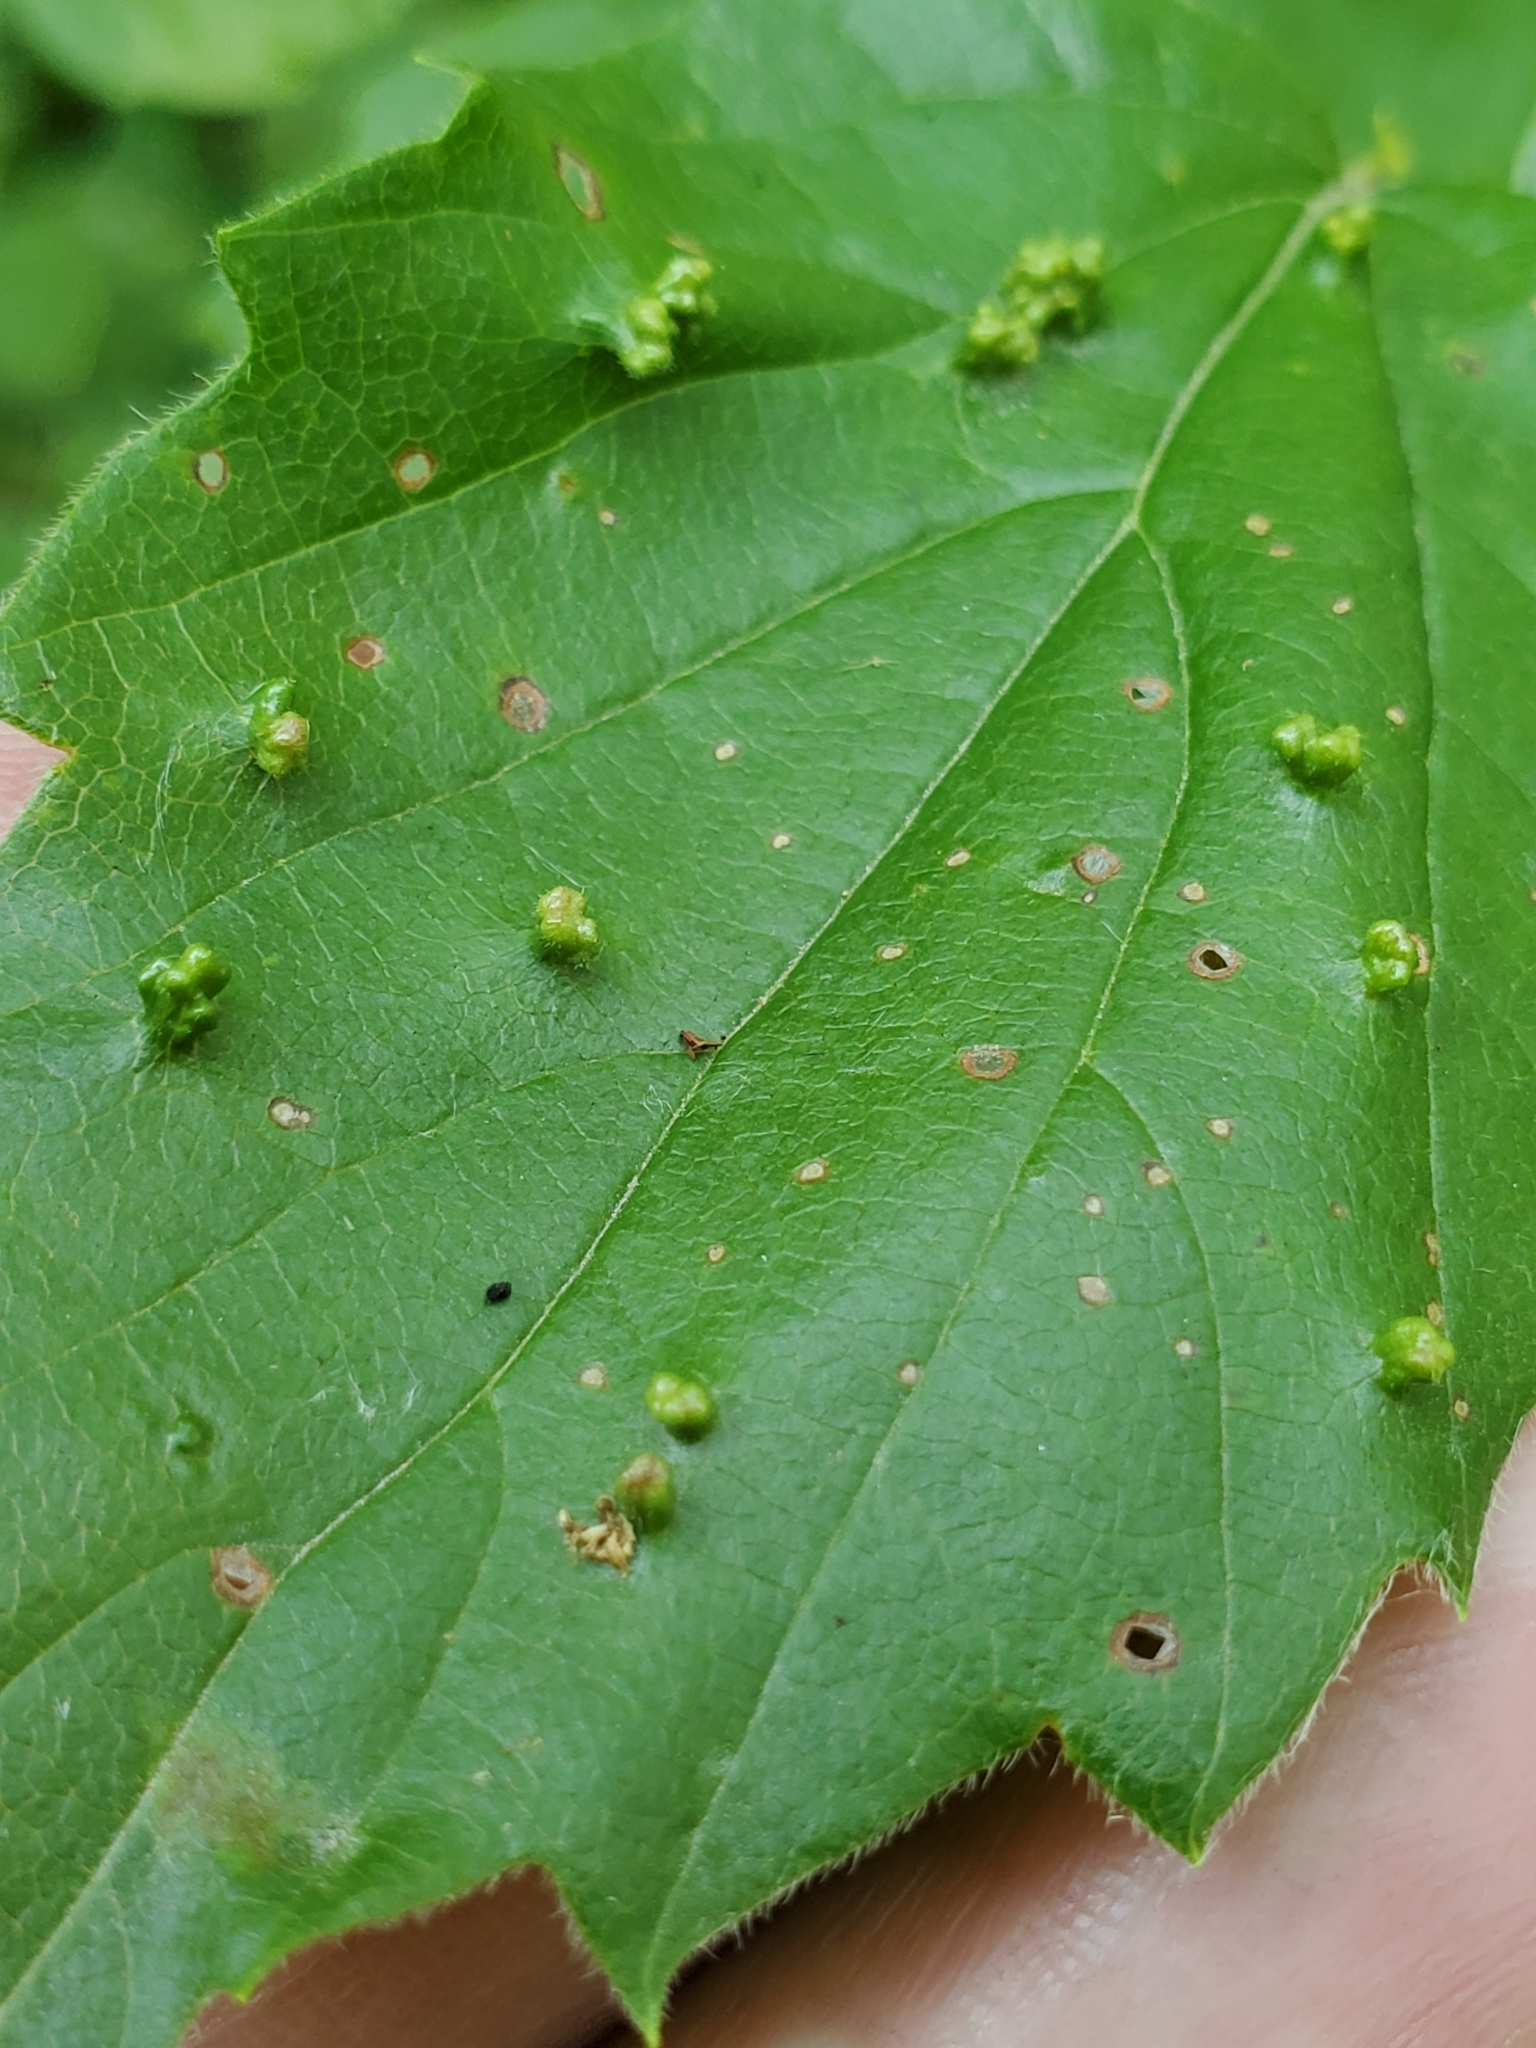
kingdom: Animalia
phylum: Arthropoda
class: Arachnida
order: Trombidiformes
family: Eriophyidae
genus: Eriophyes
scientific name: Eriophyes
